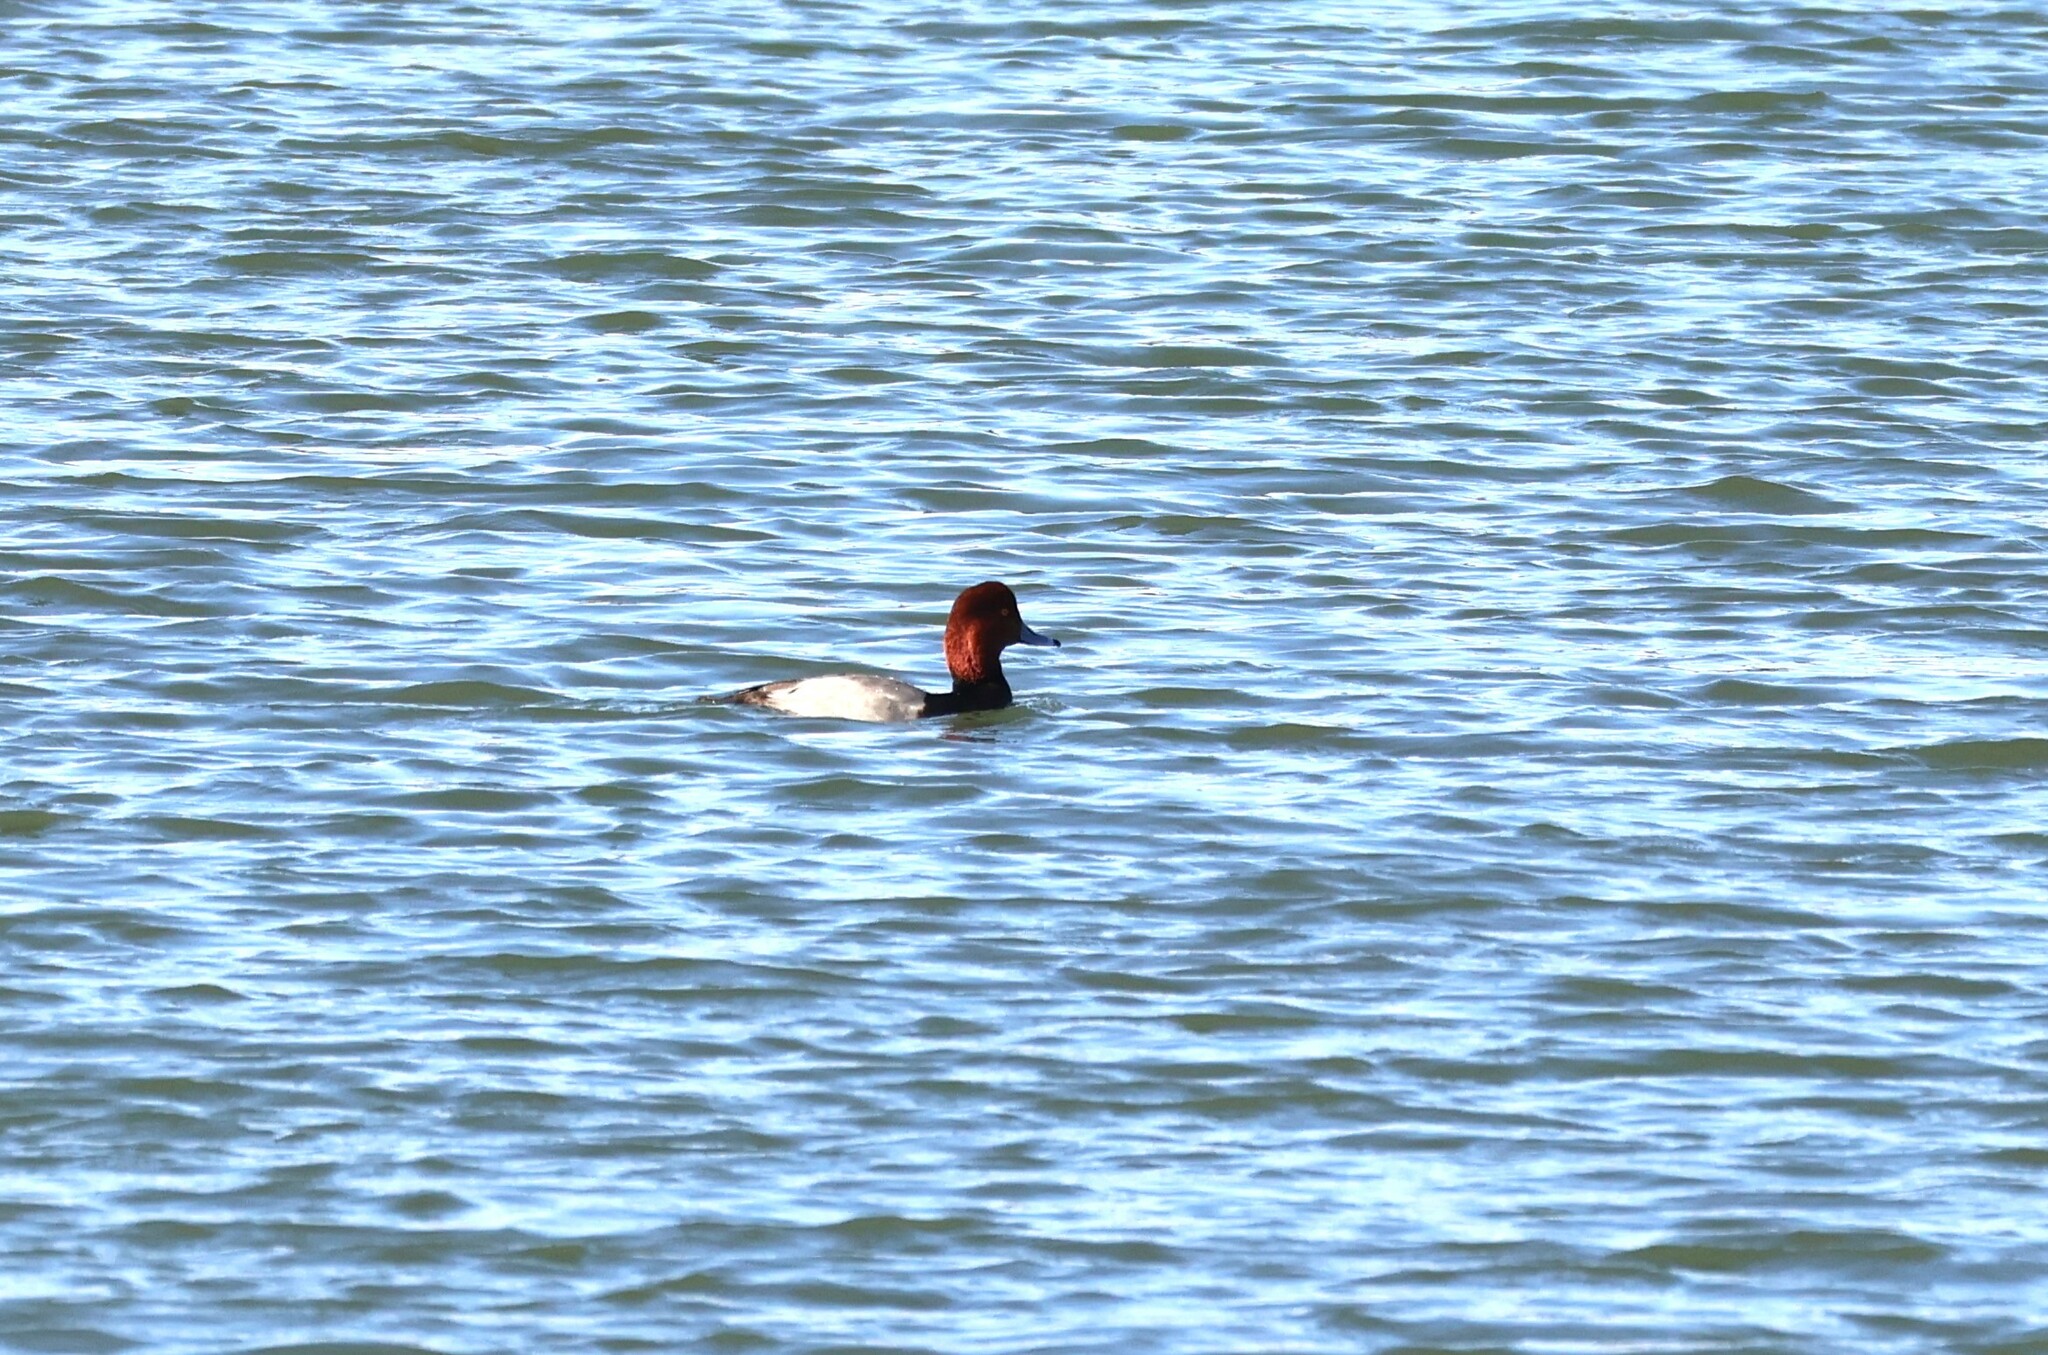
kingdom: Animalia
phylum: Chordata
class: Aves
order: Anseriformes
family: Anatidae
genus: Aythya
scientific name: Aythya americana
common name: Redhead
